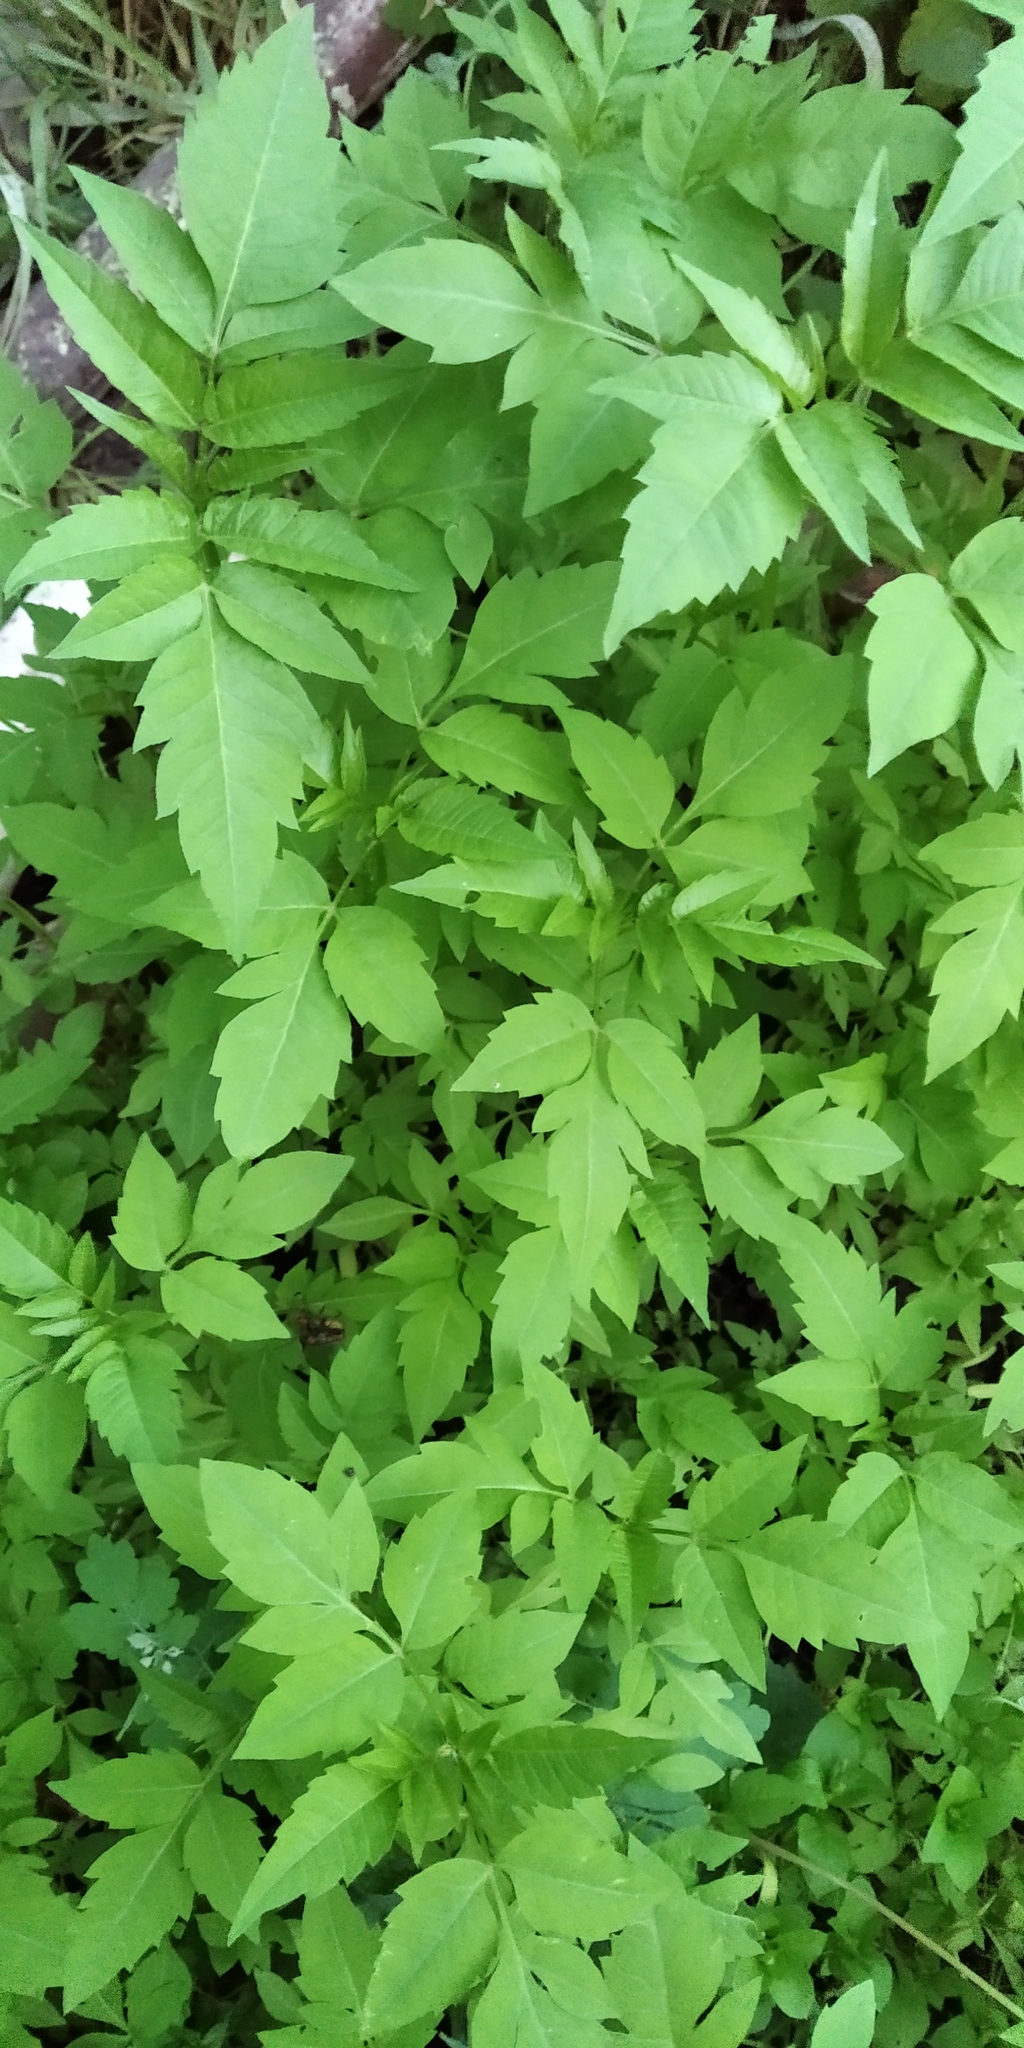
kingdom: Plantae
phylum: Tracheophyta
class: Magnoliopsida
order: Asterales
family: Asteraceae
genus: Bidens
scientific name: Bidens frondosa
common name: Beggarticks
